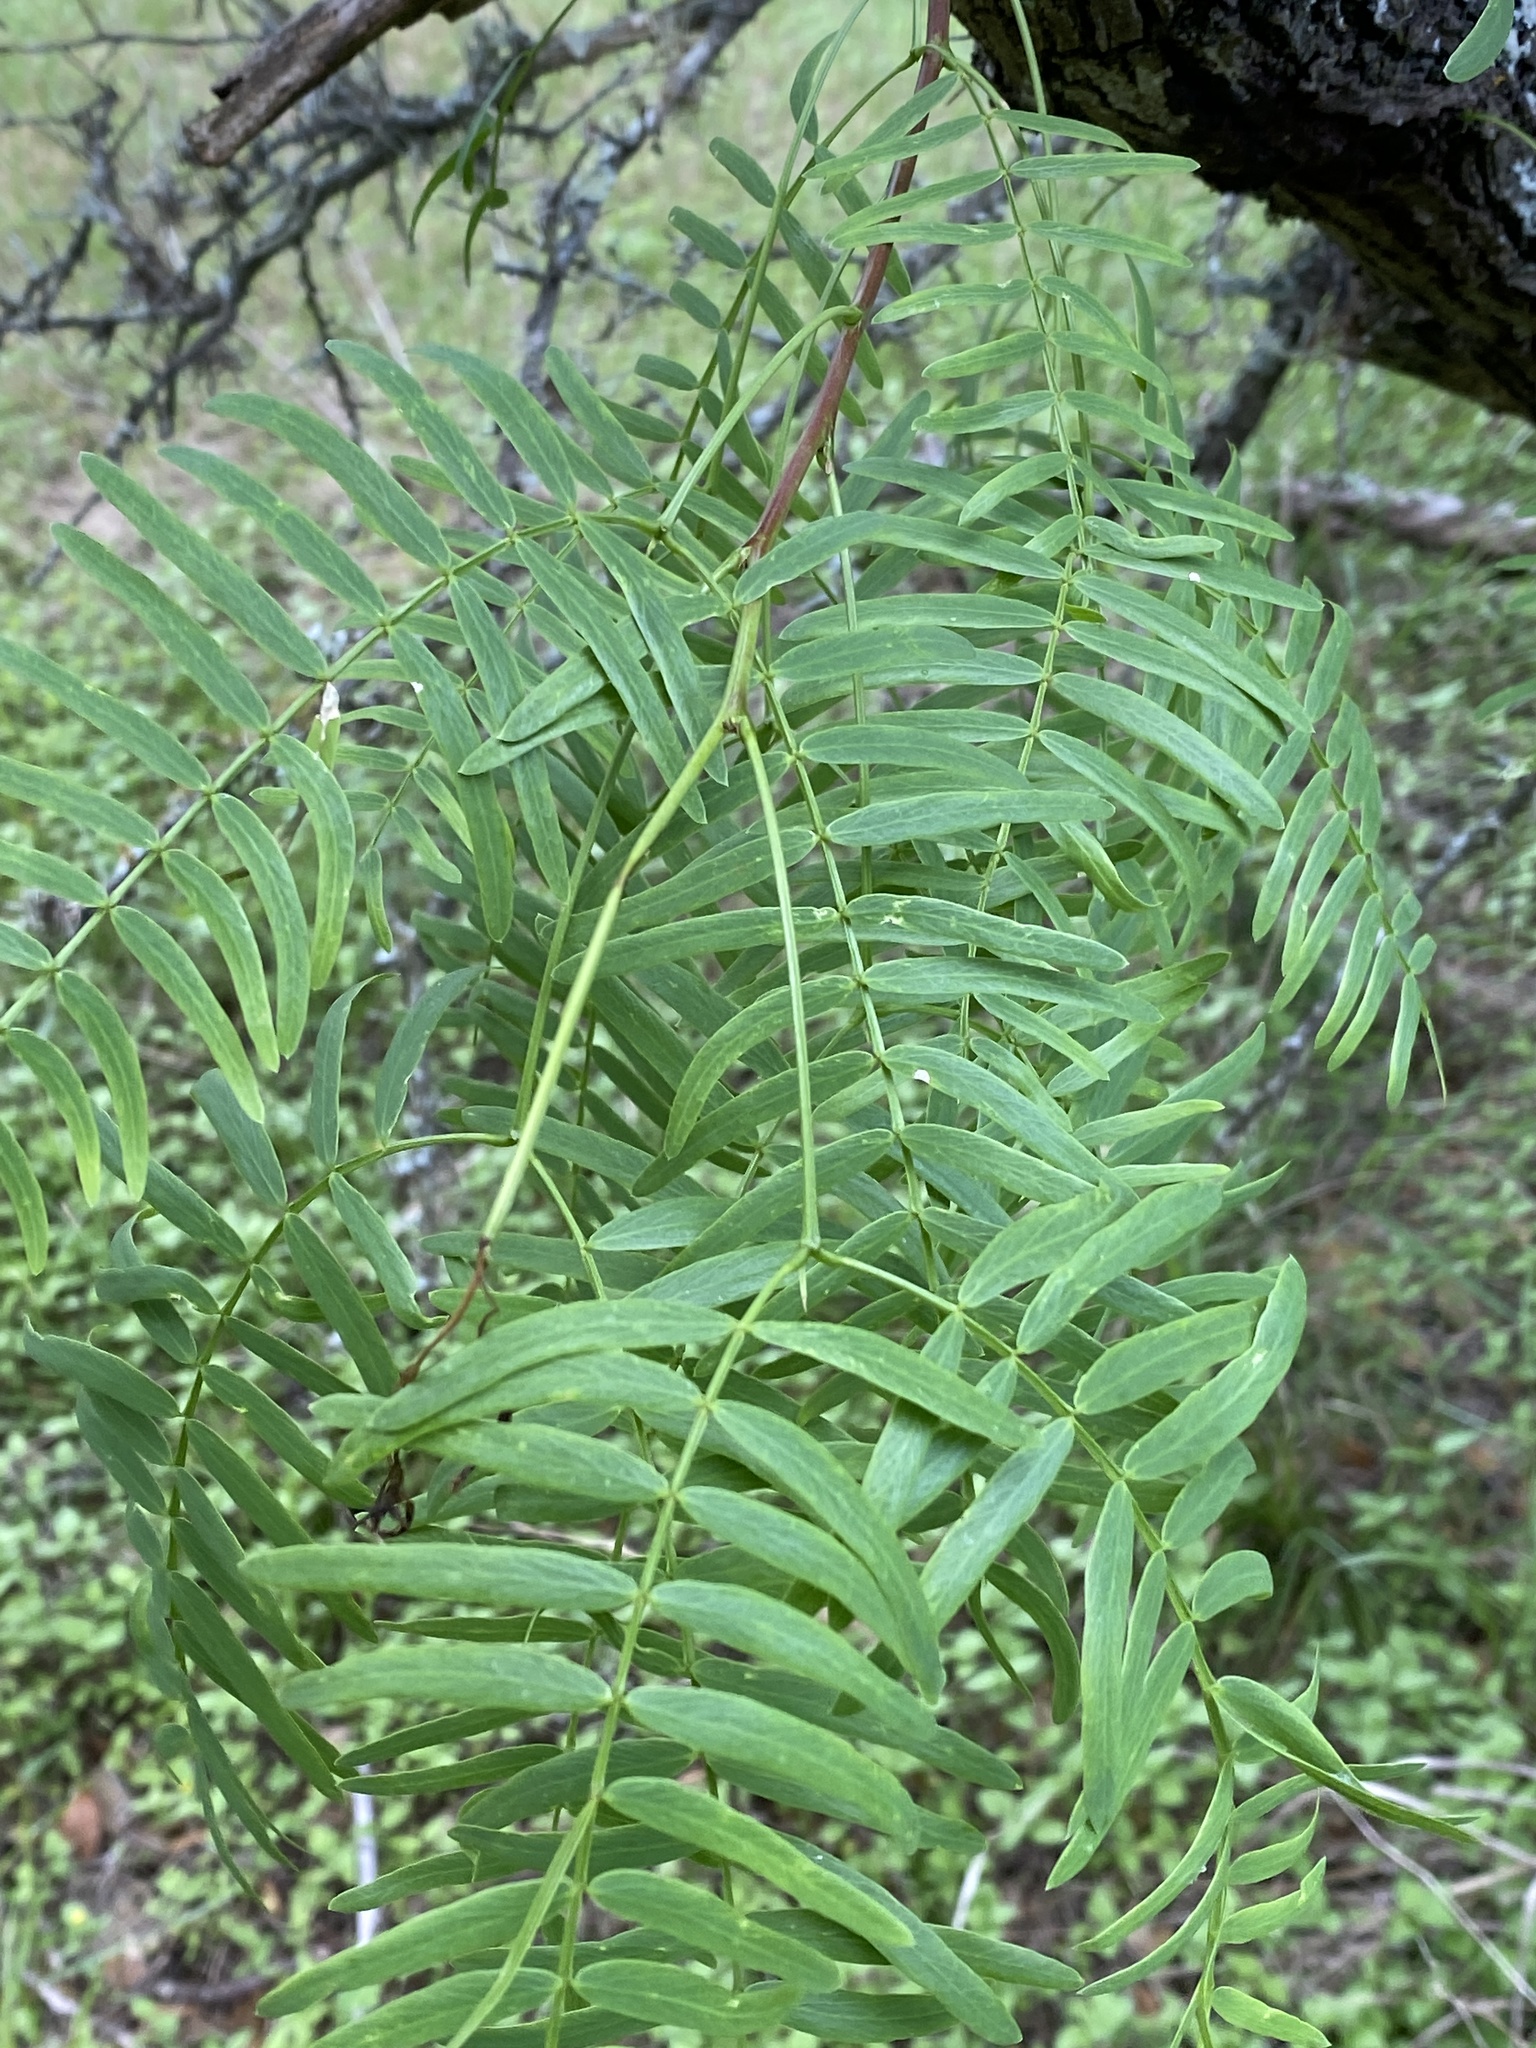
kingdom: Plantae
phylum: Tracheophyta
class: Magnoliopsida
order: Fabales
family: Fabaceae
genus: Prosopis
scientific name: Prosopis glandulosa
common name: Honey mesquite
